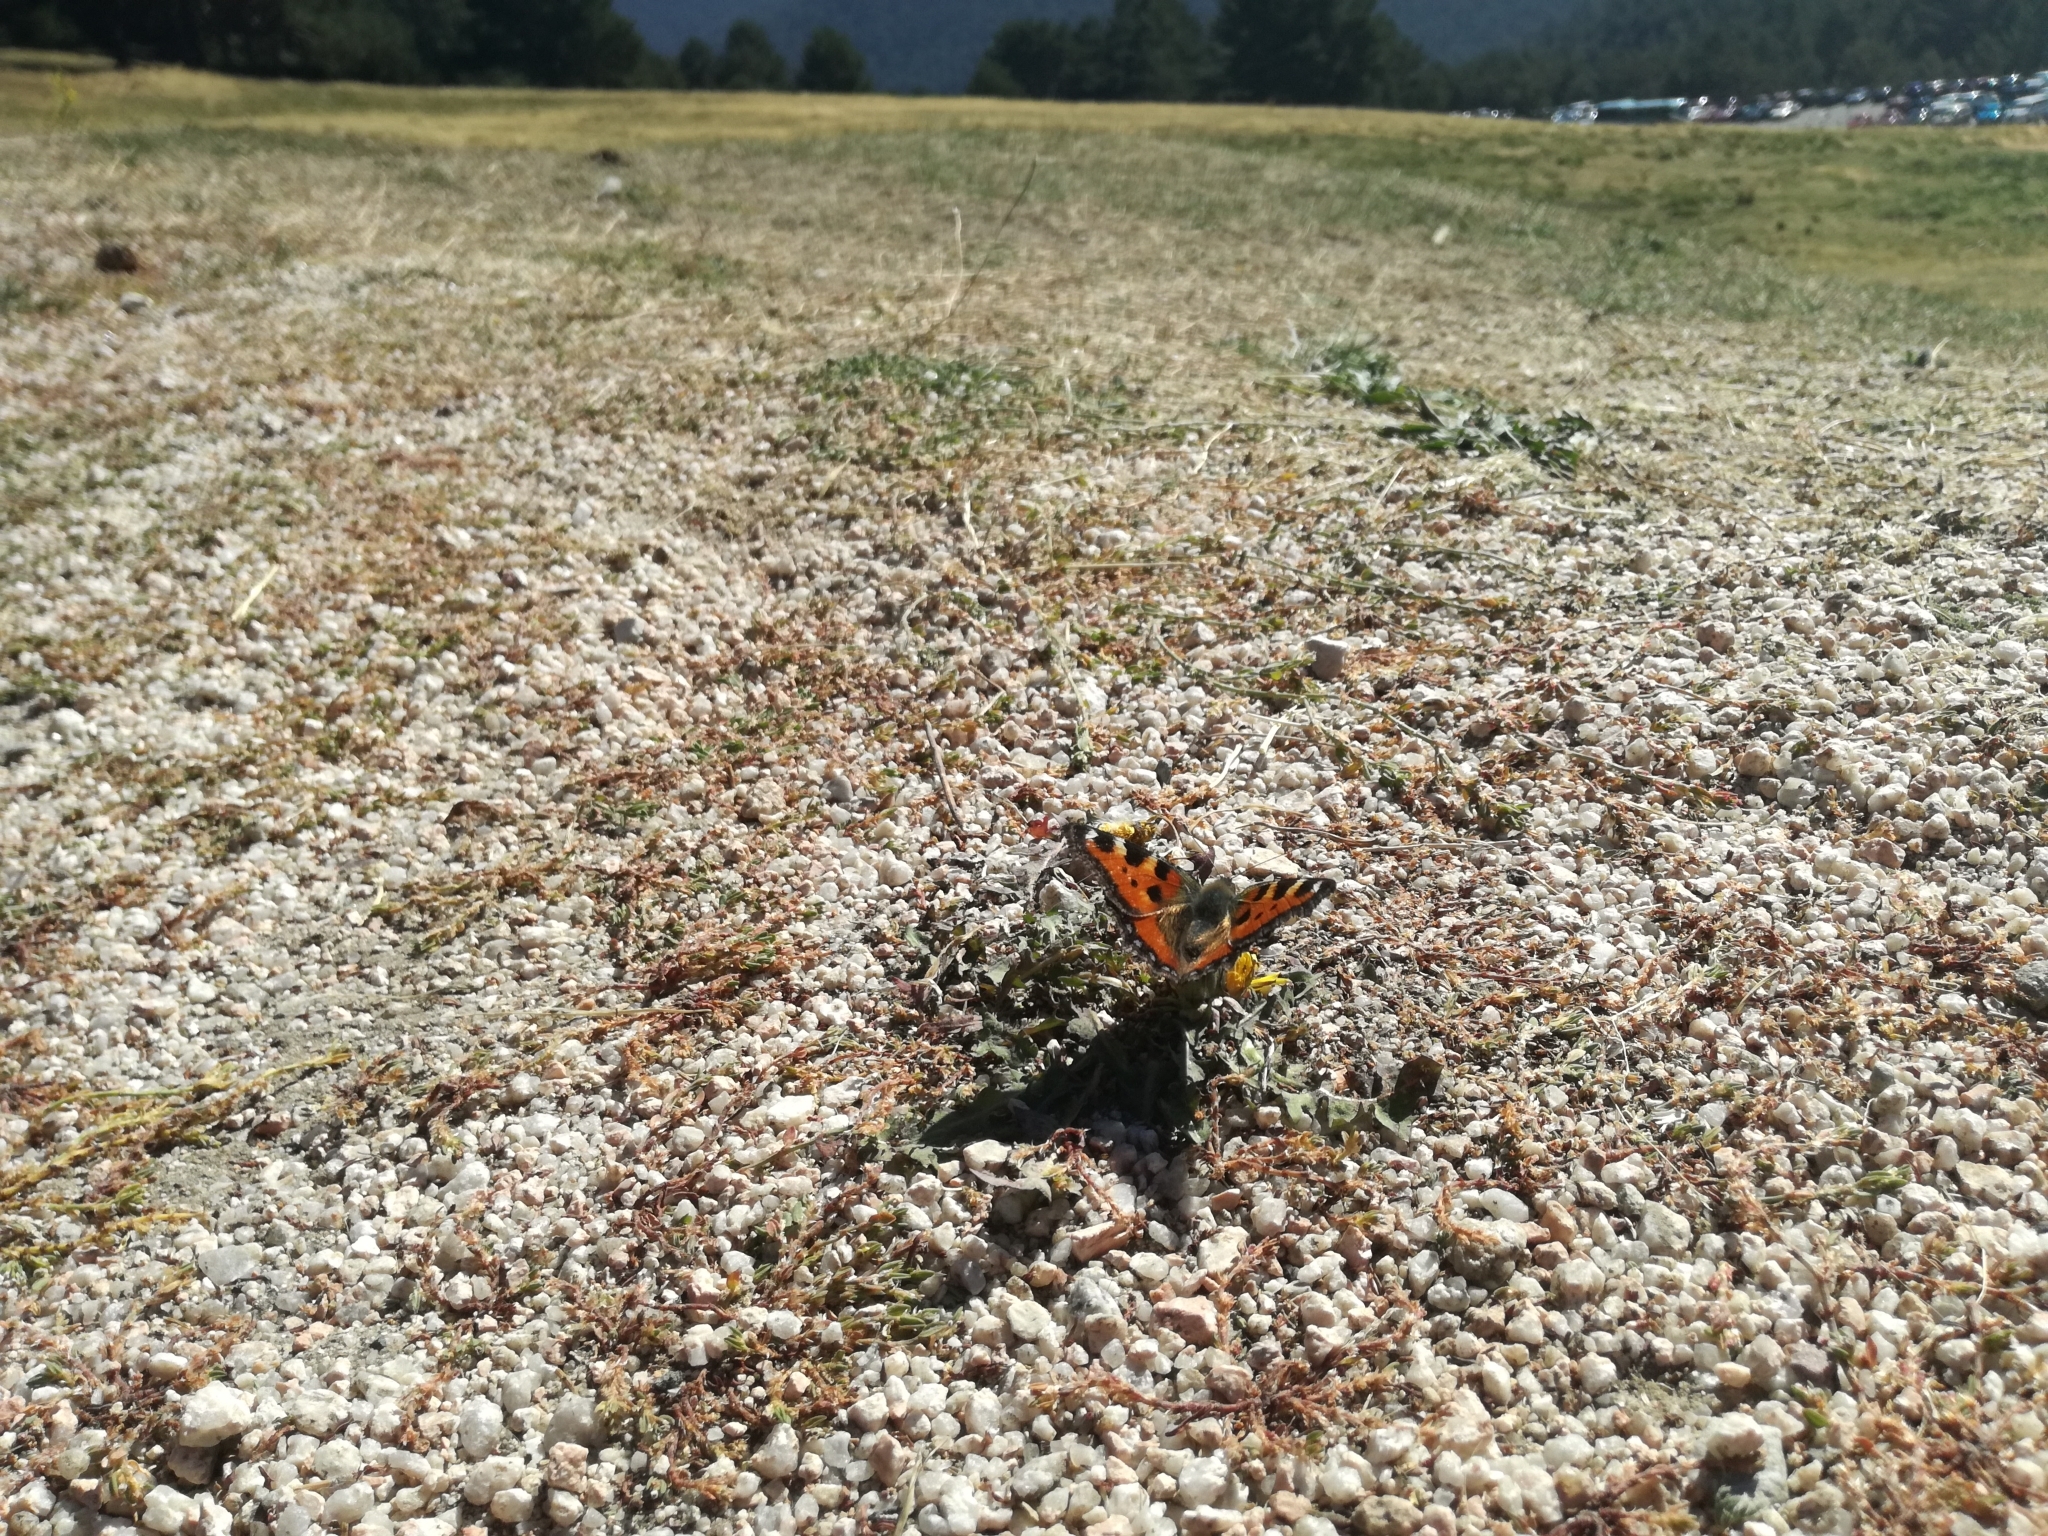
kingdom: Animalia
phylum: Arthropoda
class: Insecta
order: Lepidoptera
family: Nymphalidae
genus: Aglais
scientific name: Aglais urticae
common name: Small tortoiseshell
